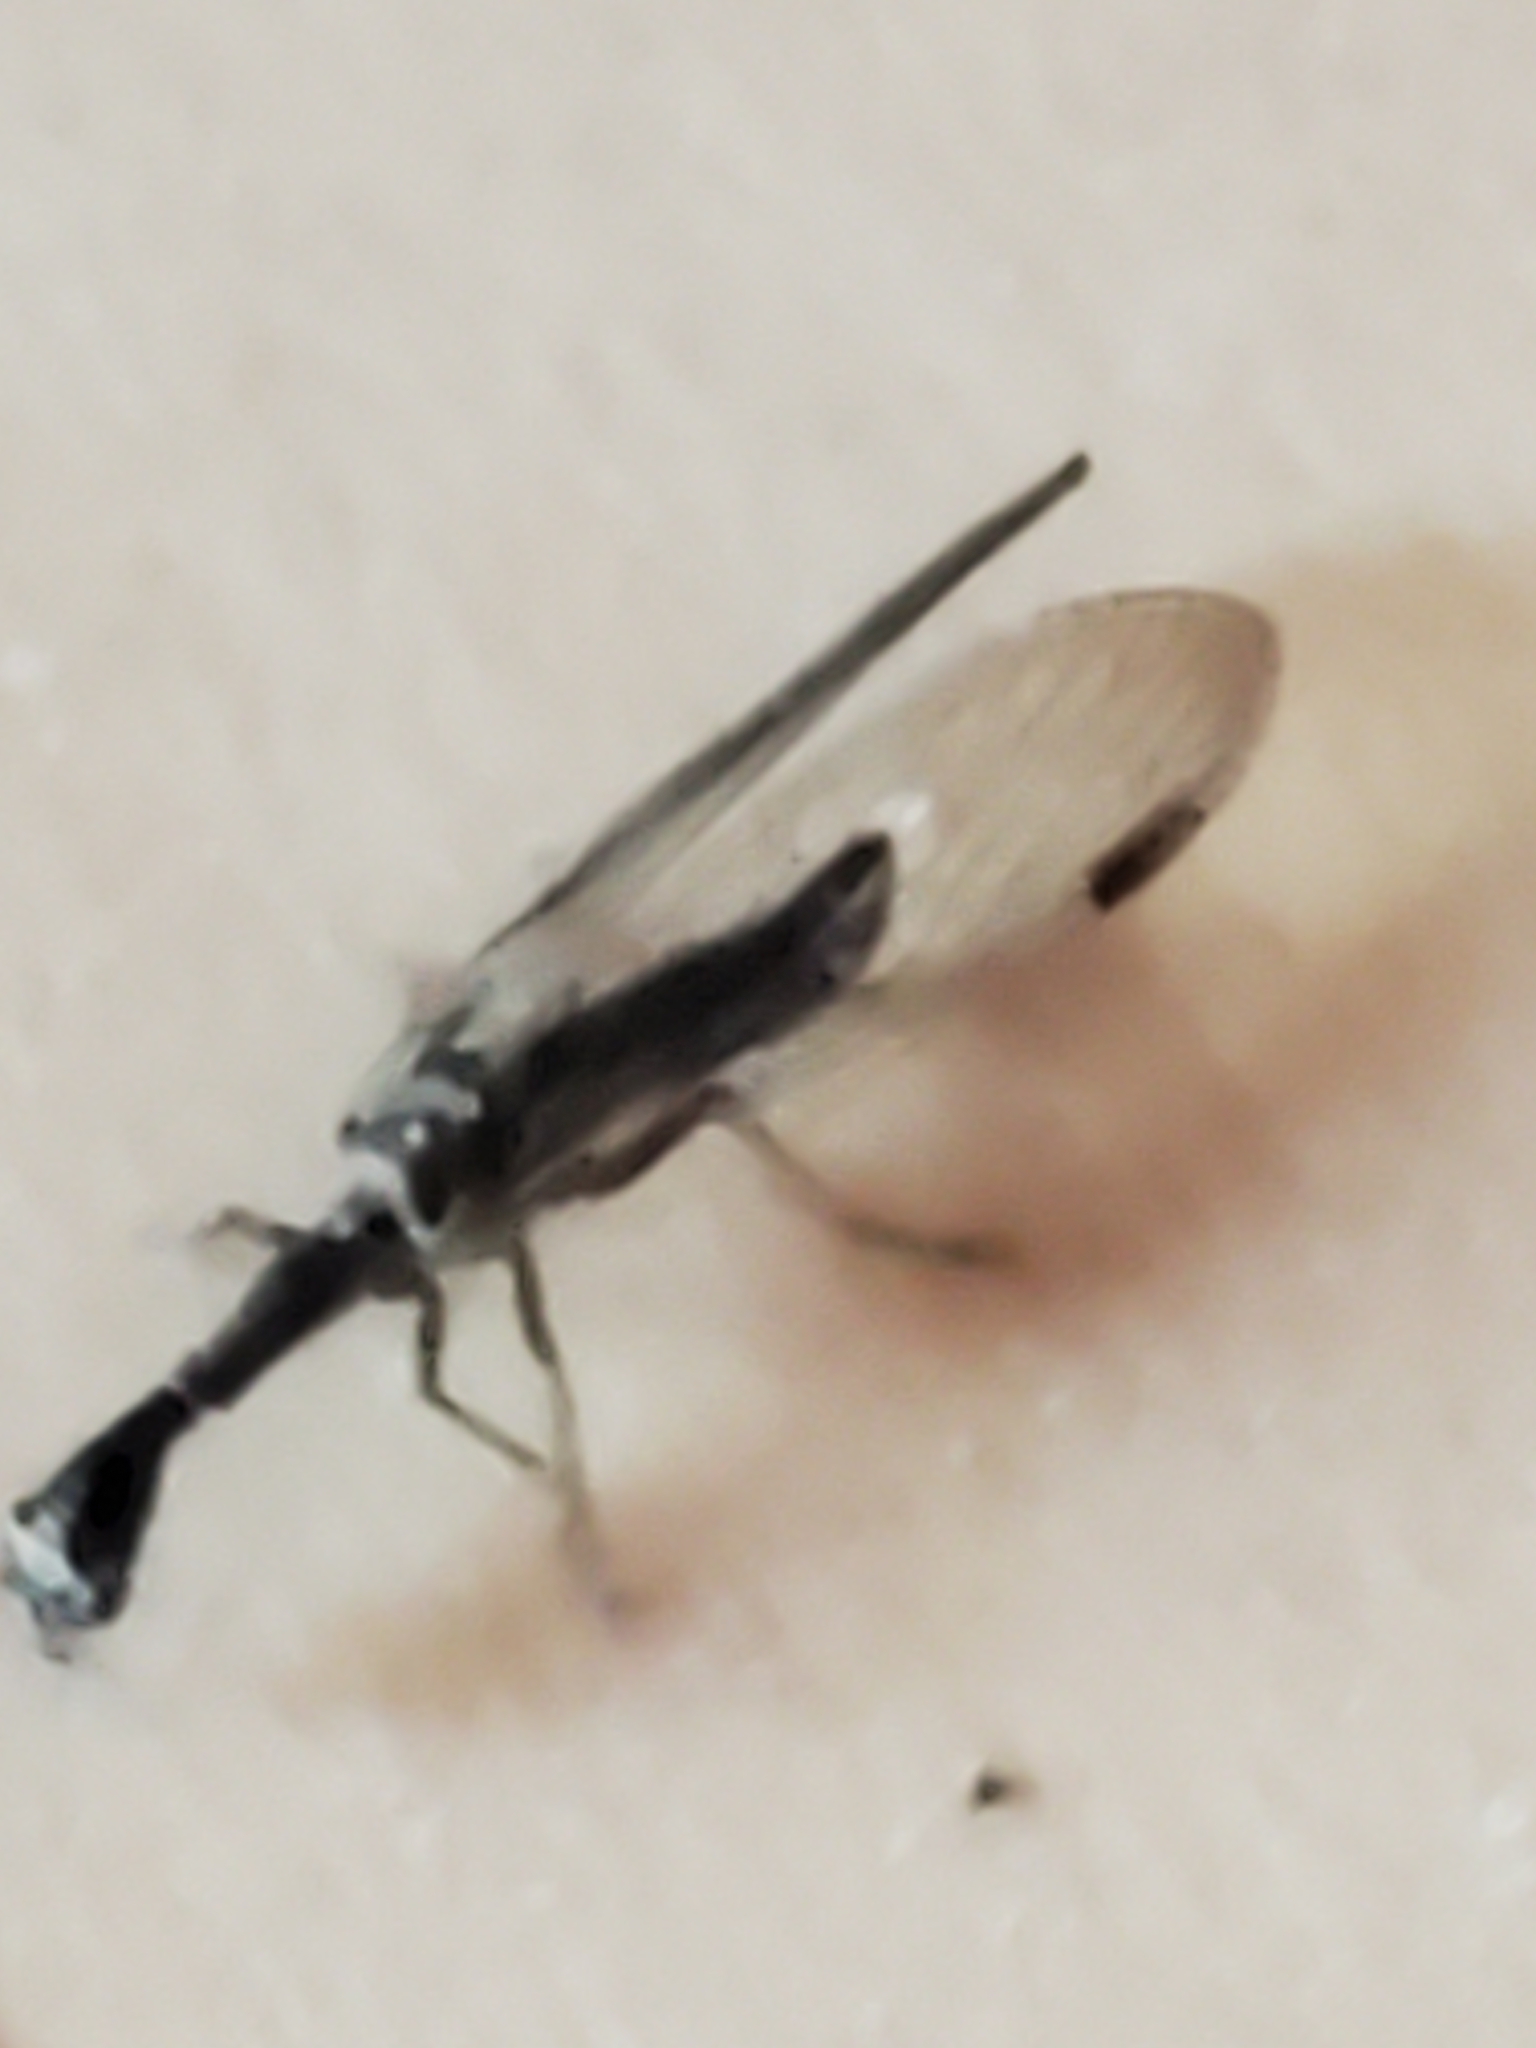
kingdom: Animalia
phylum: Arthropoda
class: Insecta
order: Raphidioptera
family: Raphidiidae
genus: Agulla
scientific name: Agulla bicolor
